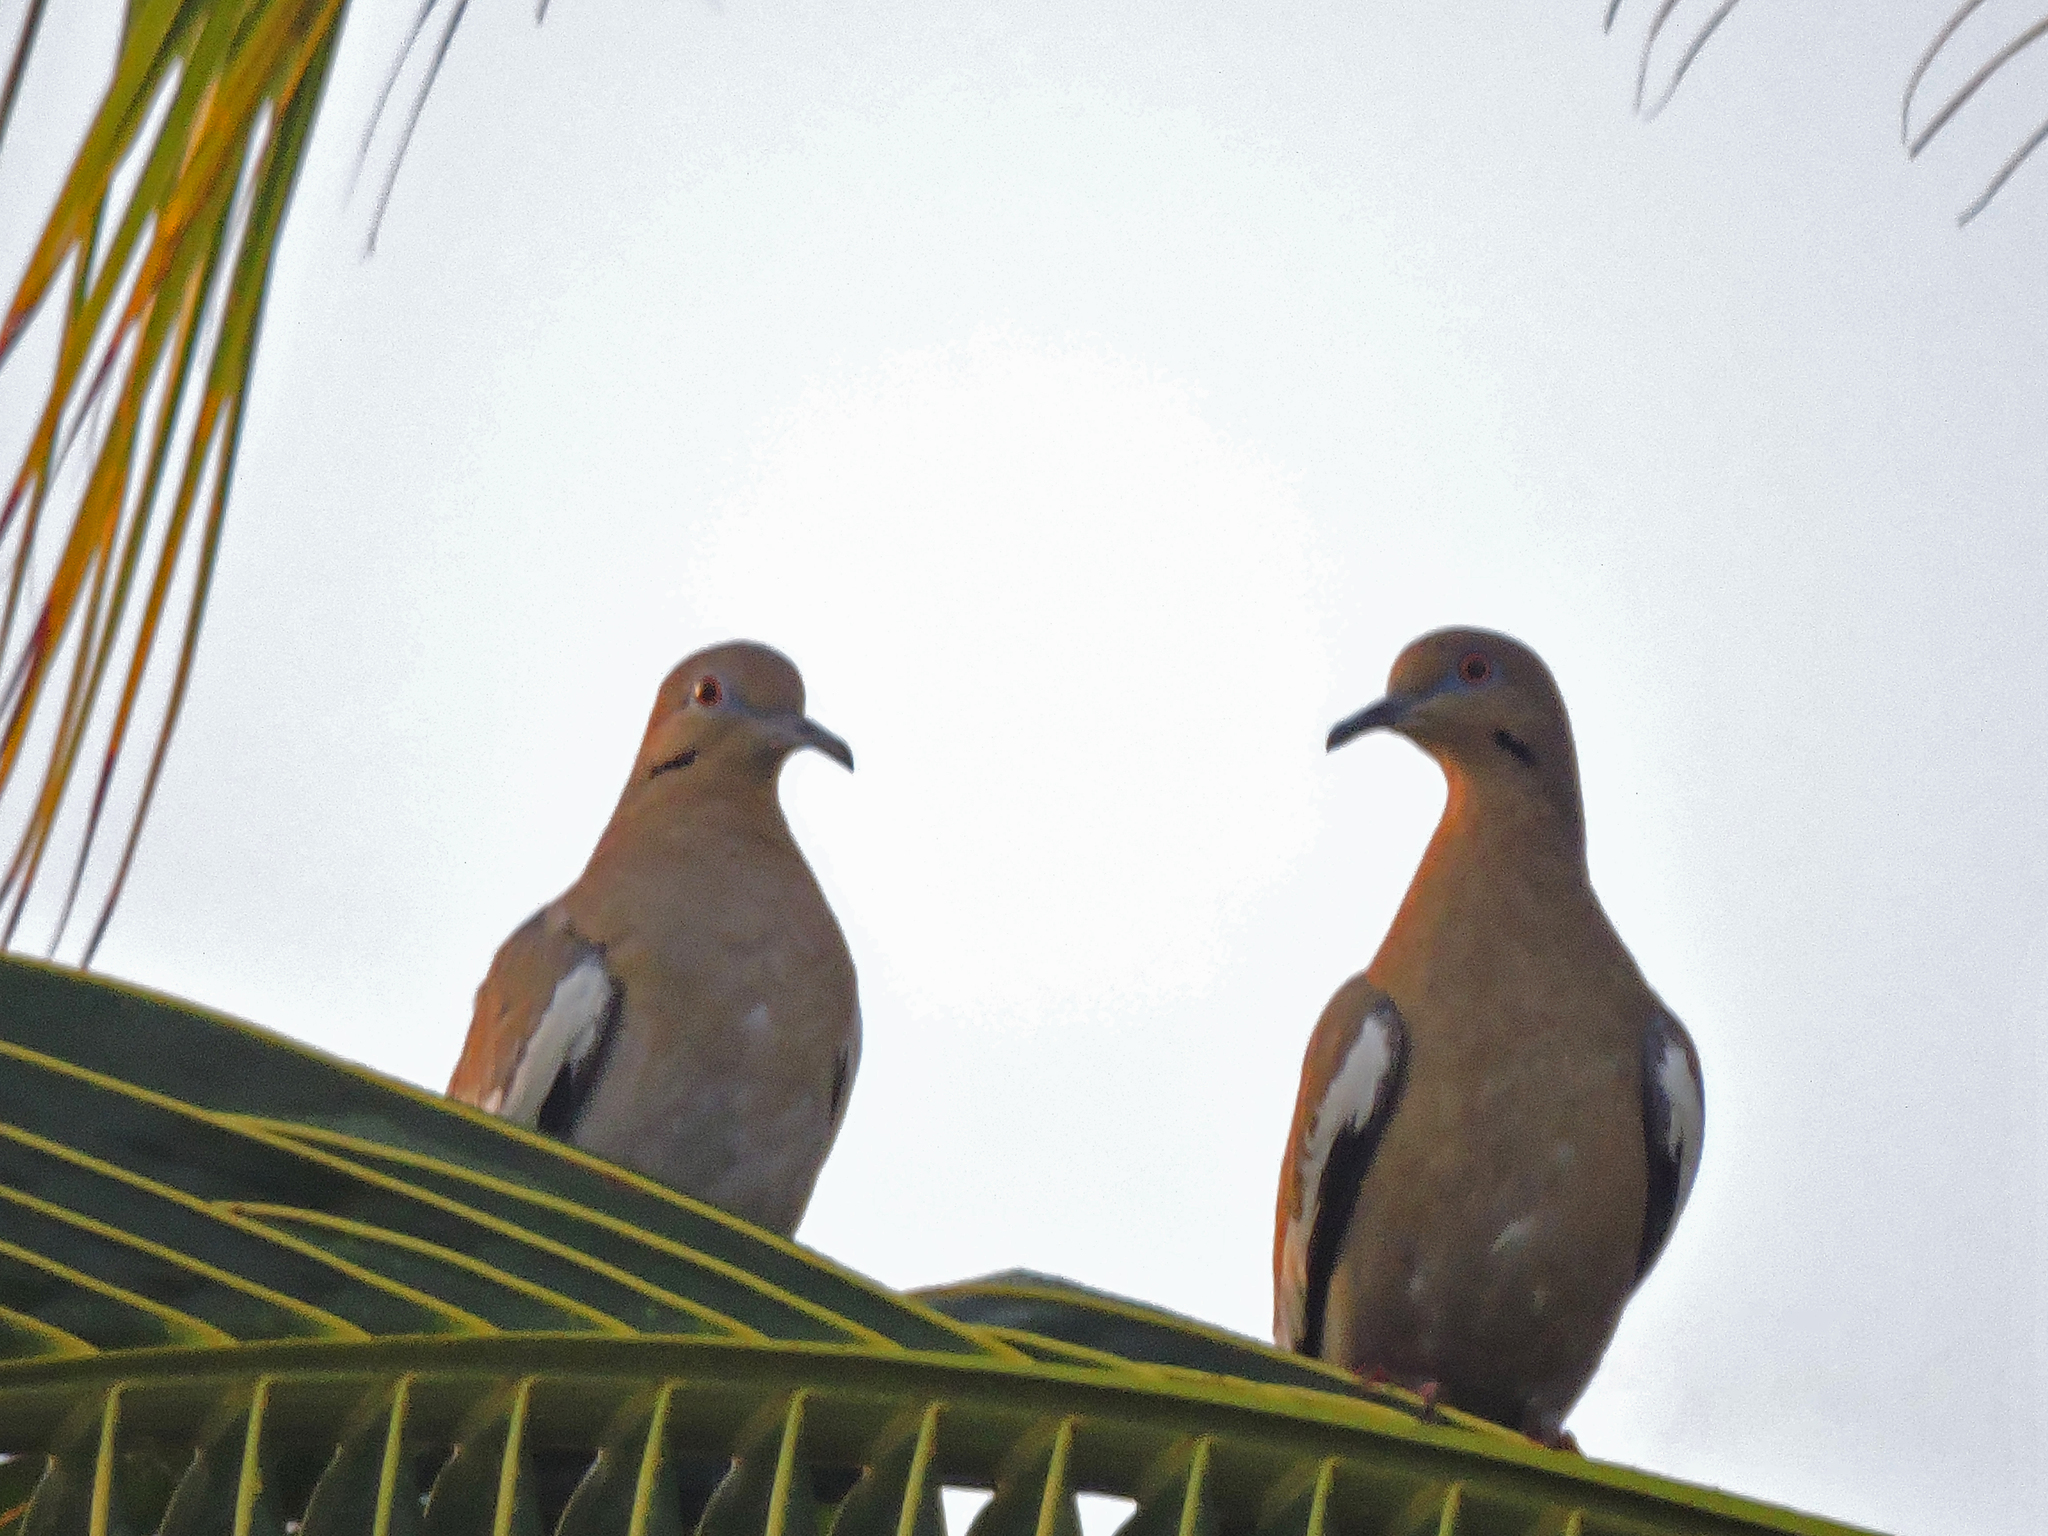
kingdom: Animalia
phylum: Chordata
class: Aves
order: Columbiformes
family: Columbidae
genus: Zenaida
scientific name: Zenaida asiatica
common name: White-winged dove
